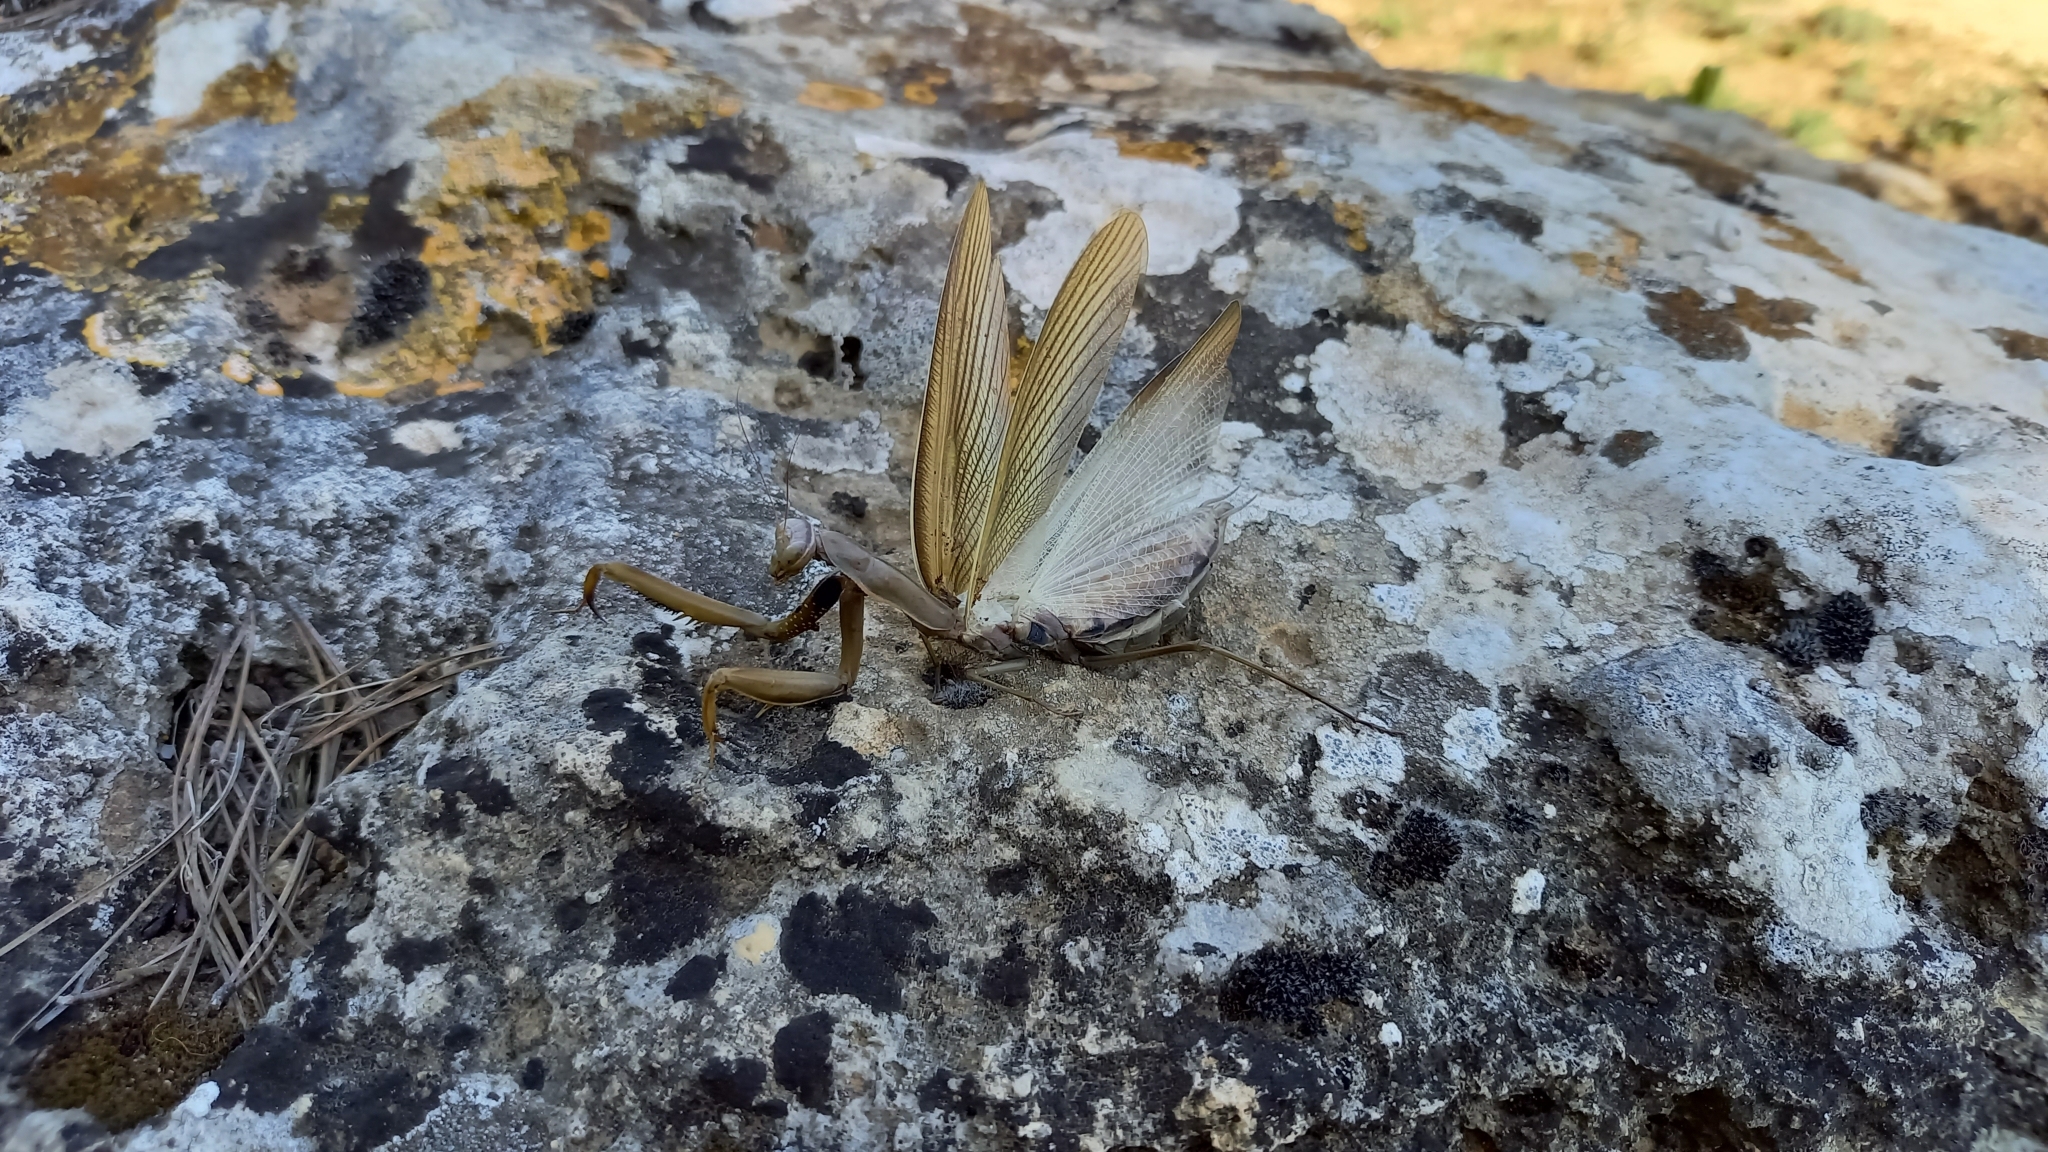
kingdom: Animalia
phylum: Arthropoda
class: Insecta
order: Mantodea
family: Mantidae
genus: Mantis
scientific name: Mantis religiosa
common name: Praying mantis
